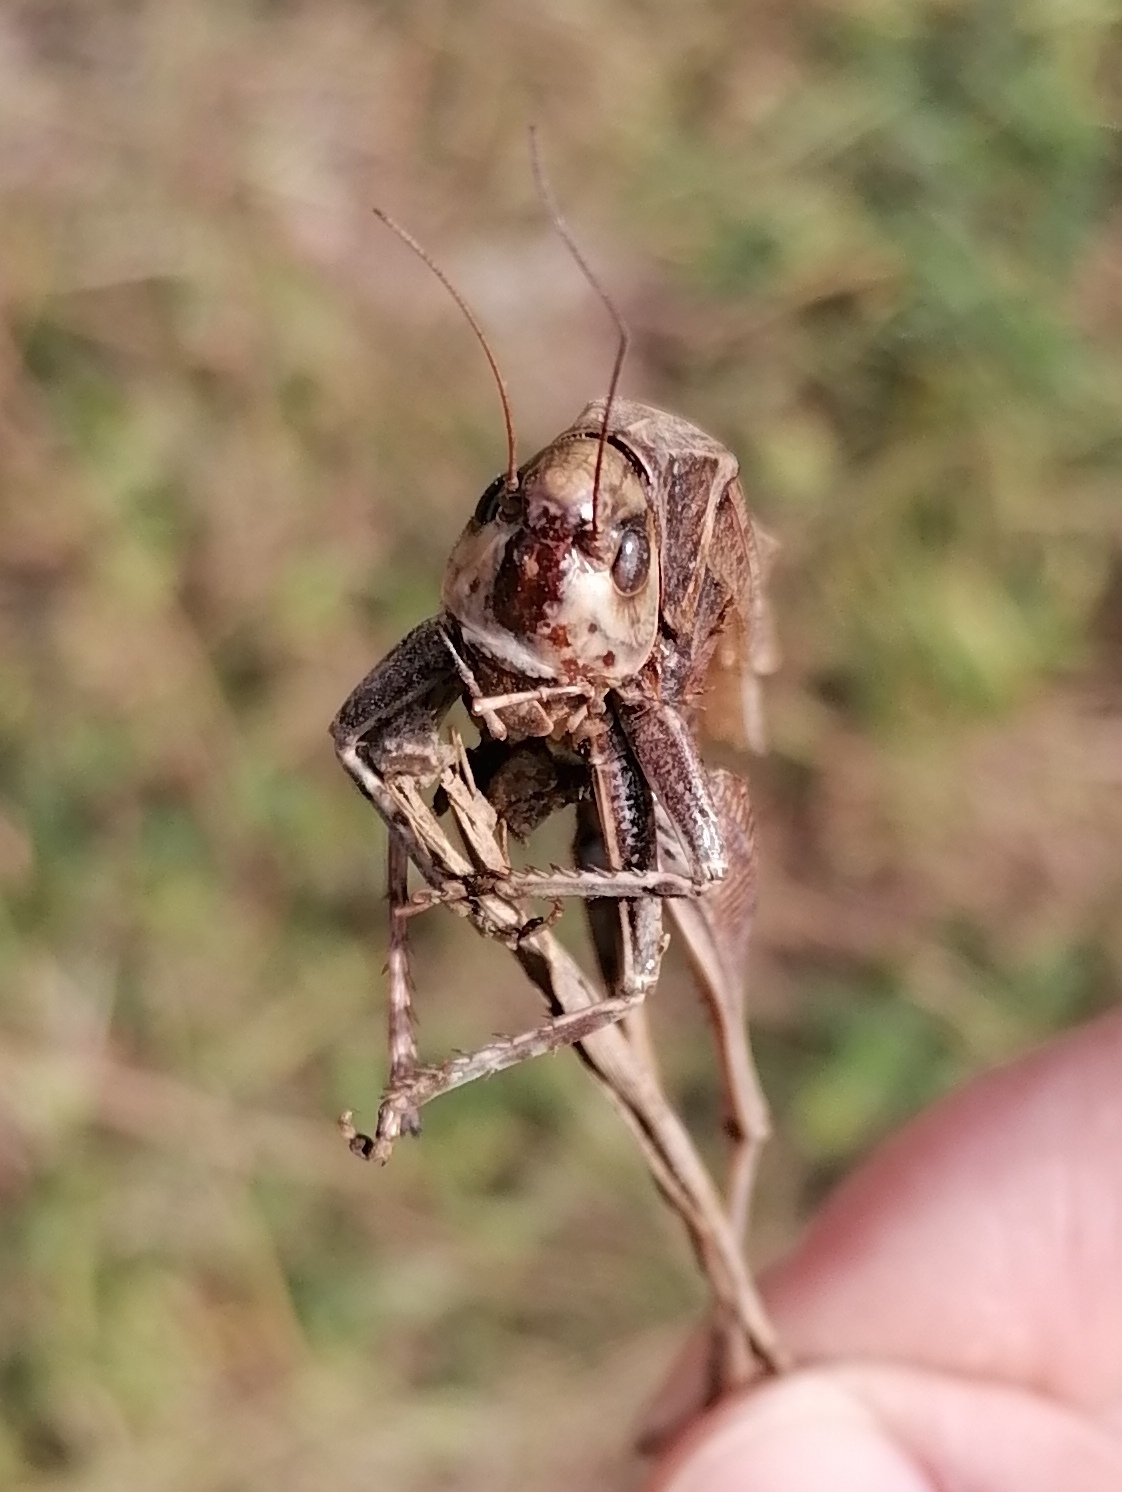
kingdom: Animalia
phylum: Arthropoda
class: Insecta
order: Orthoptera
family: Tettigoniidae
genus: Decticus
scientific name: Decticus verrucivorus
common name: Wart-biter
